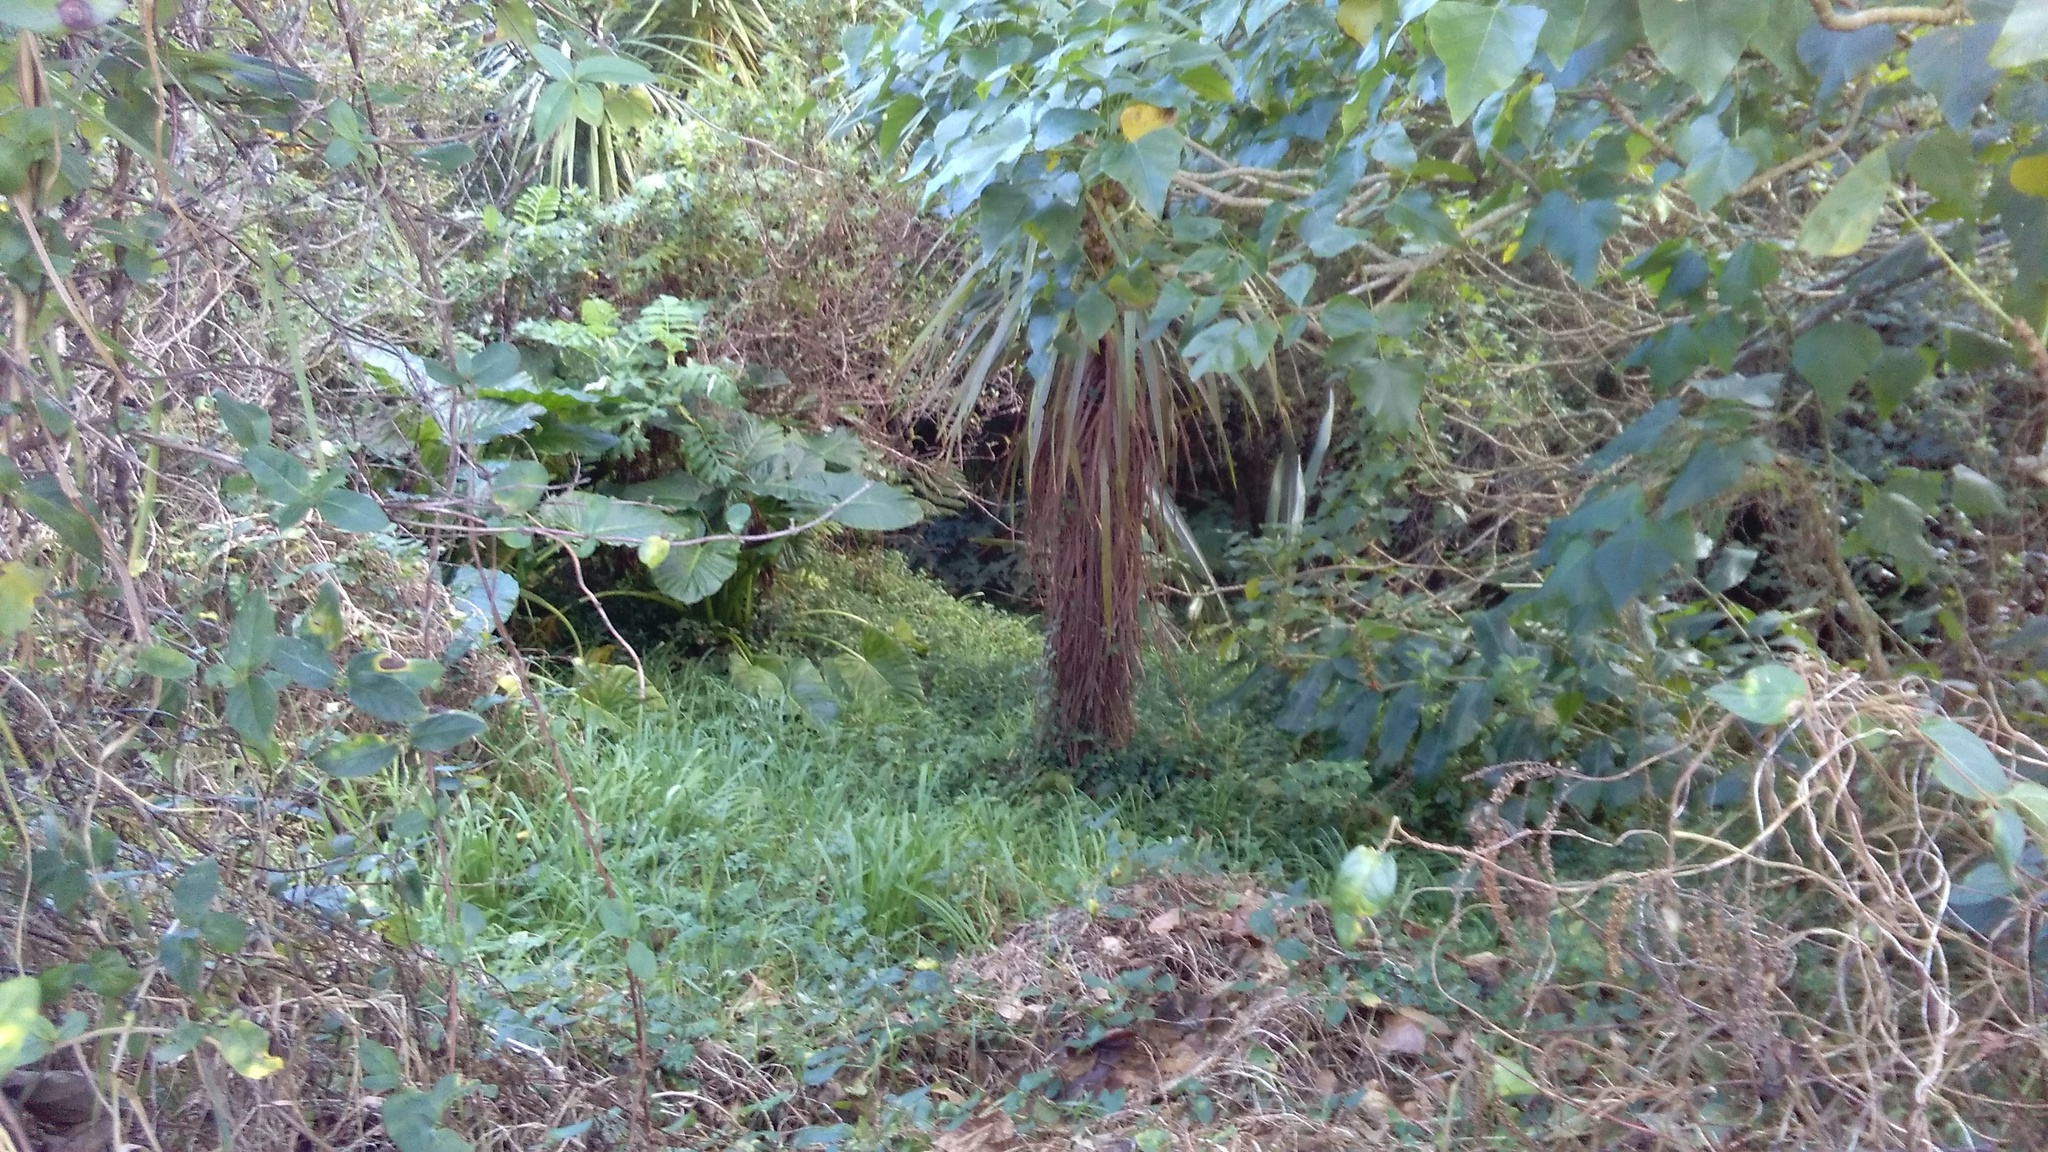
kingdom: Plantae
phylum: Tracheophyta
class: Magnoliopsida
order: Geraniales
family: Melianthaceae
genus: Melianthus
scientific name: Melianthus major
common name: Honey-flower
